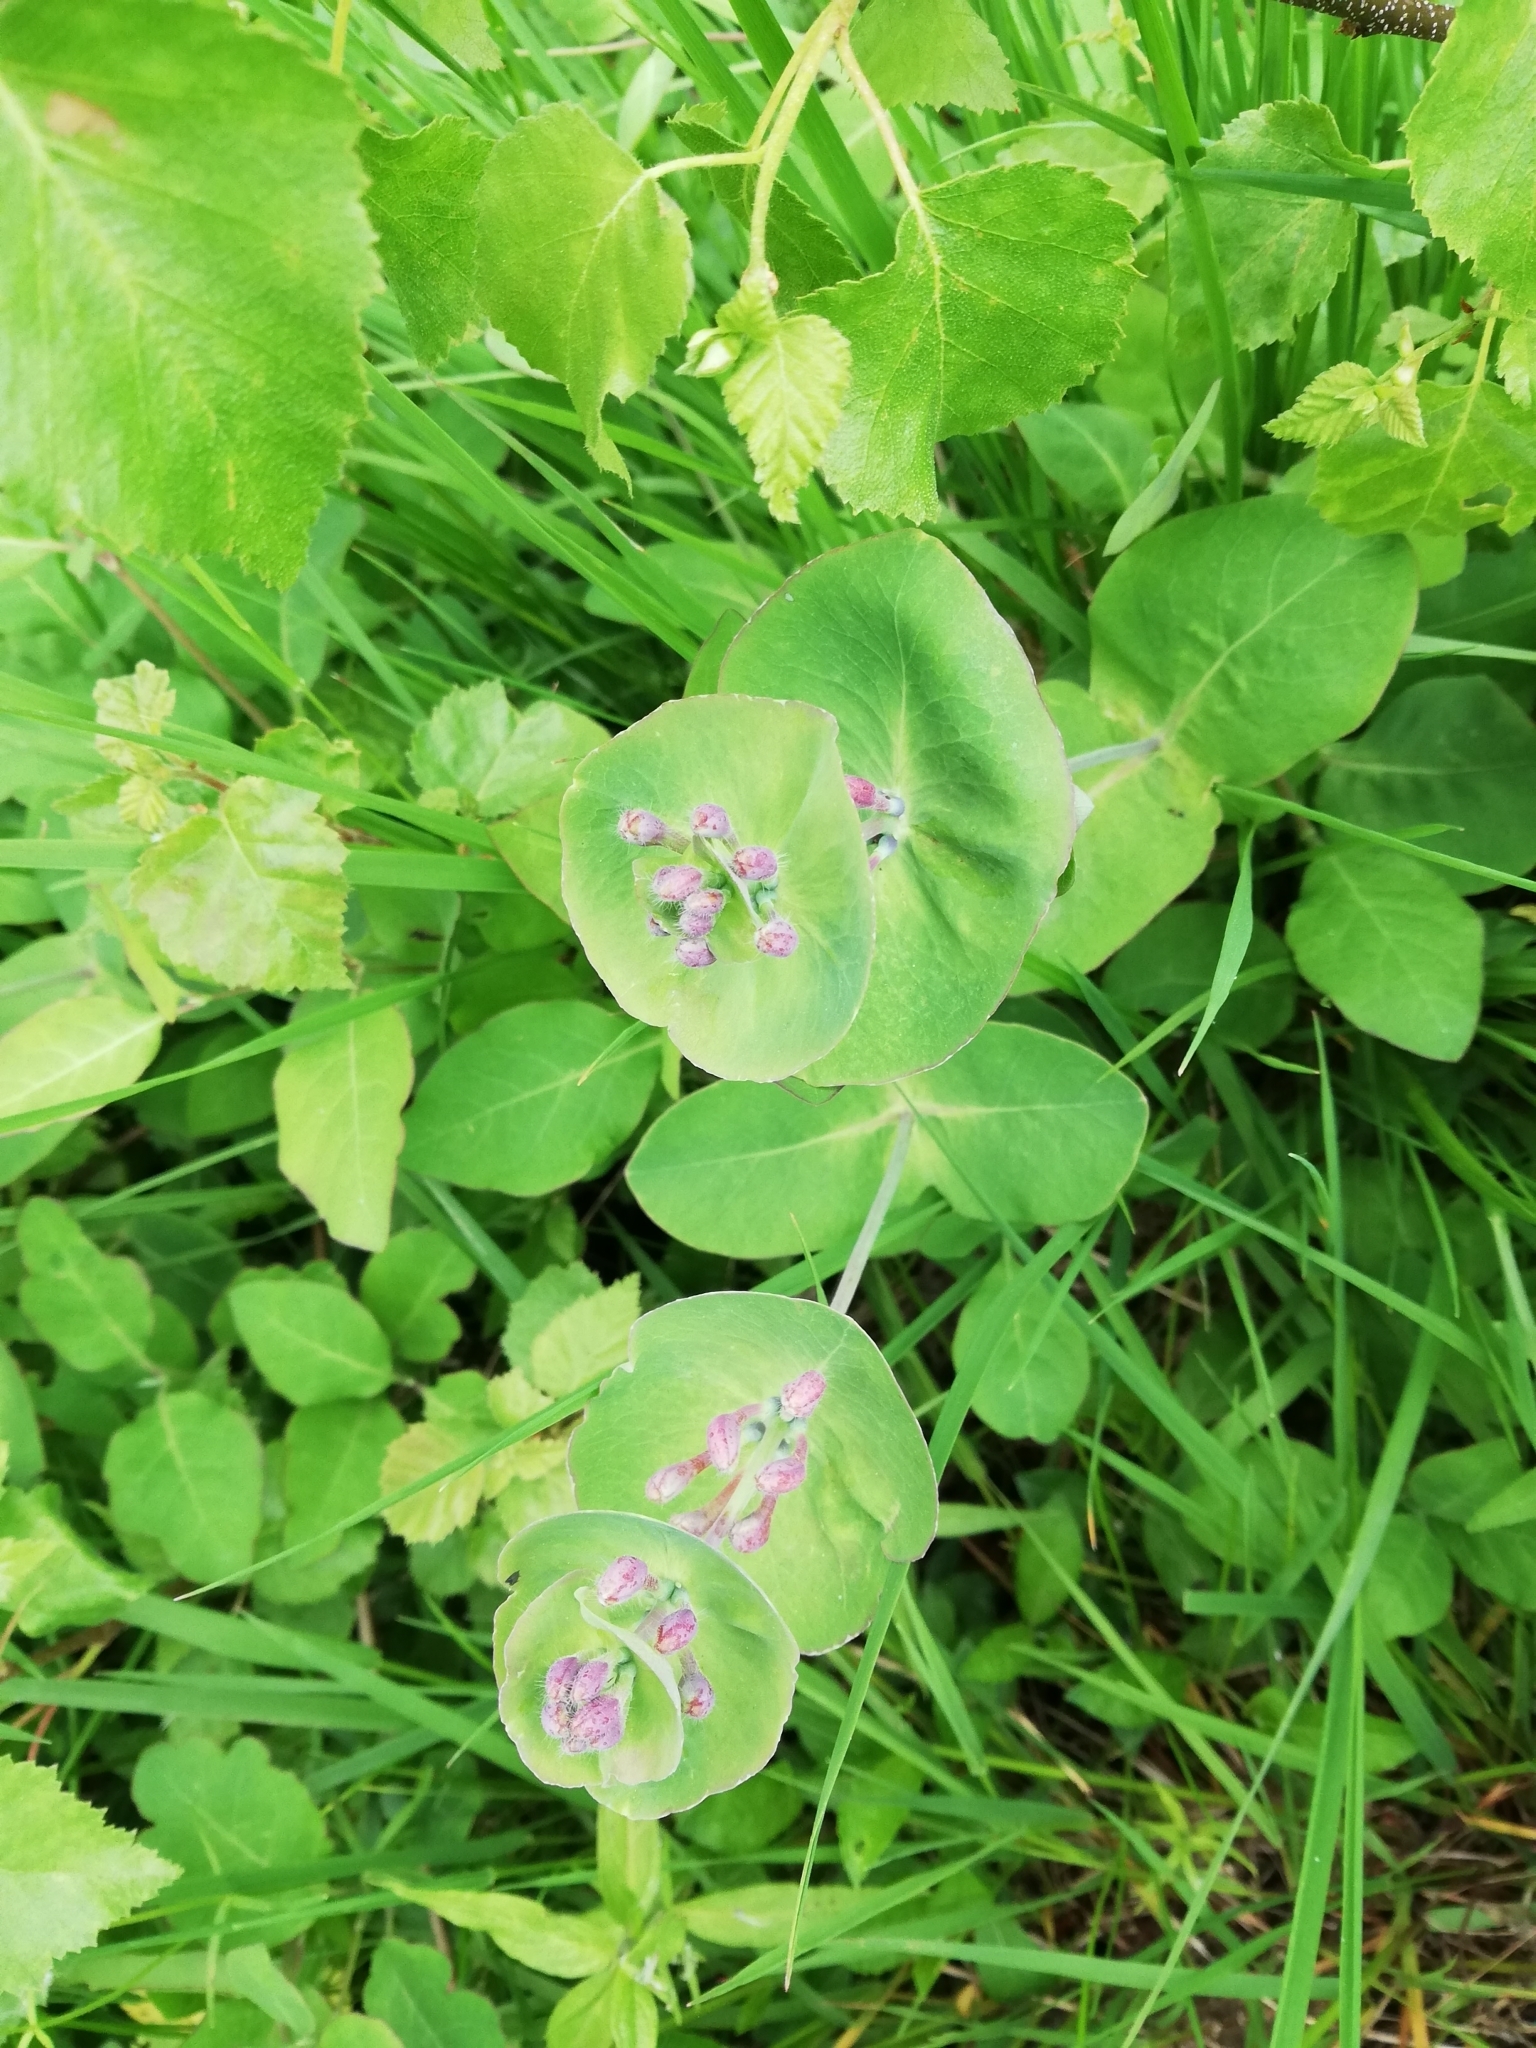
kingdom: Plantae
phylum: Tracheophyta
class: Magnoliopsida
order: Dipsacales
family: Caprifoliaceae
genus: Lonicera
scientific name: Lonicera caprifolium
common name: Perfoliate honeysuckle
